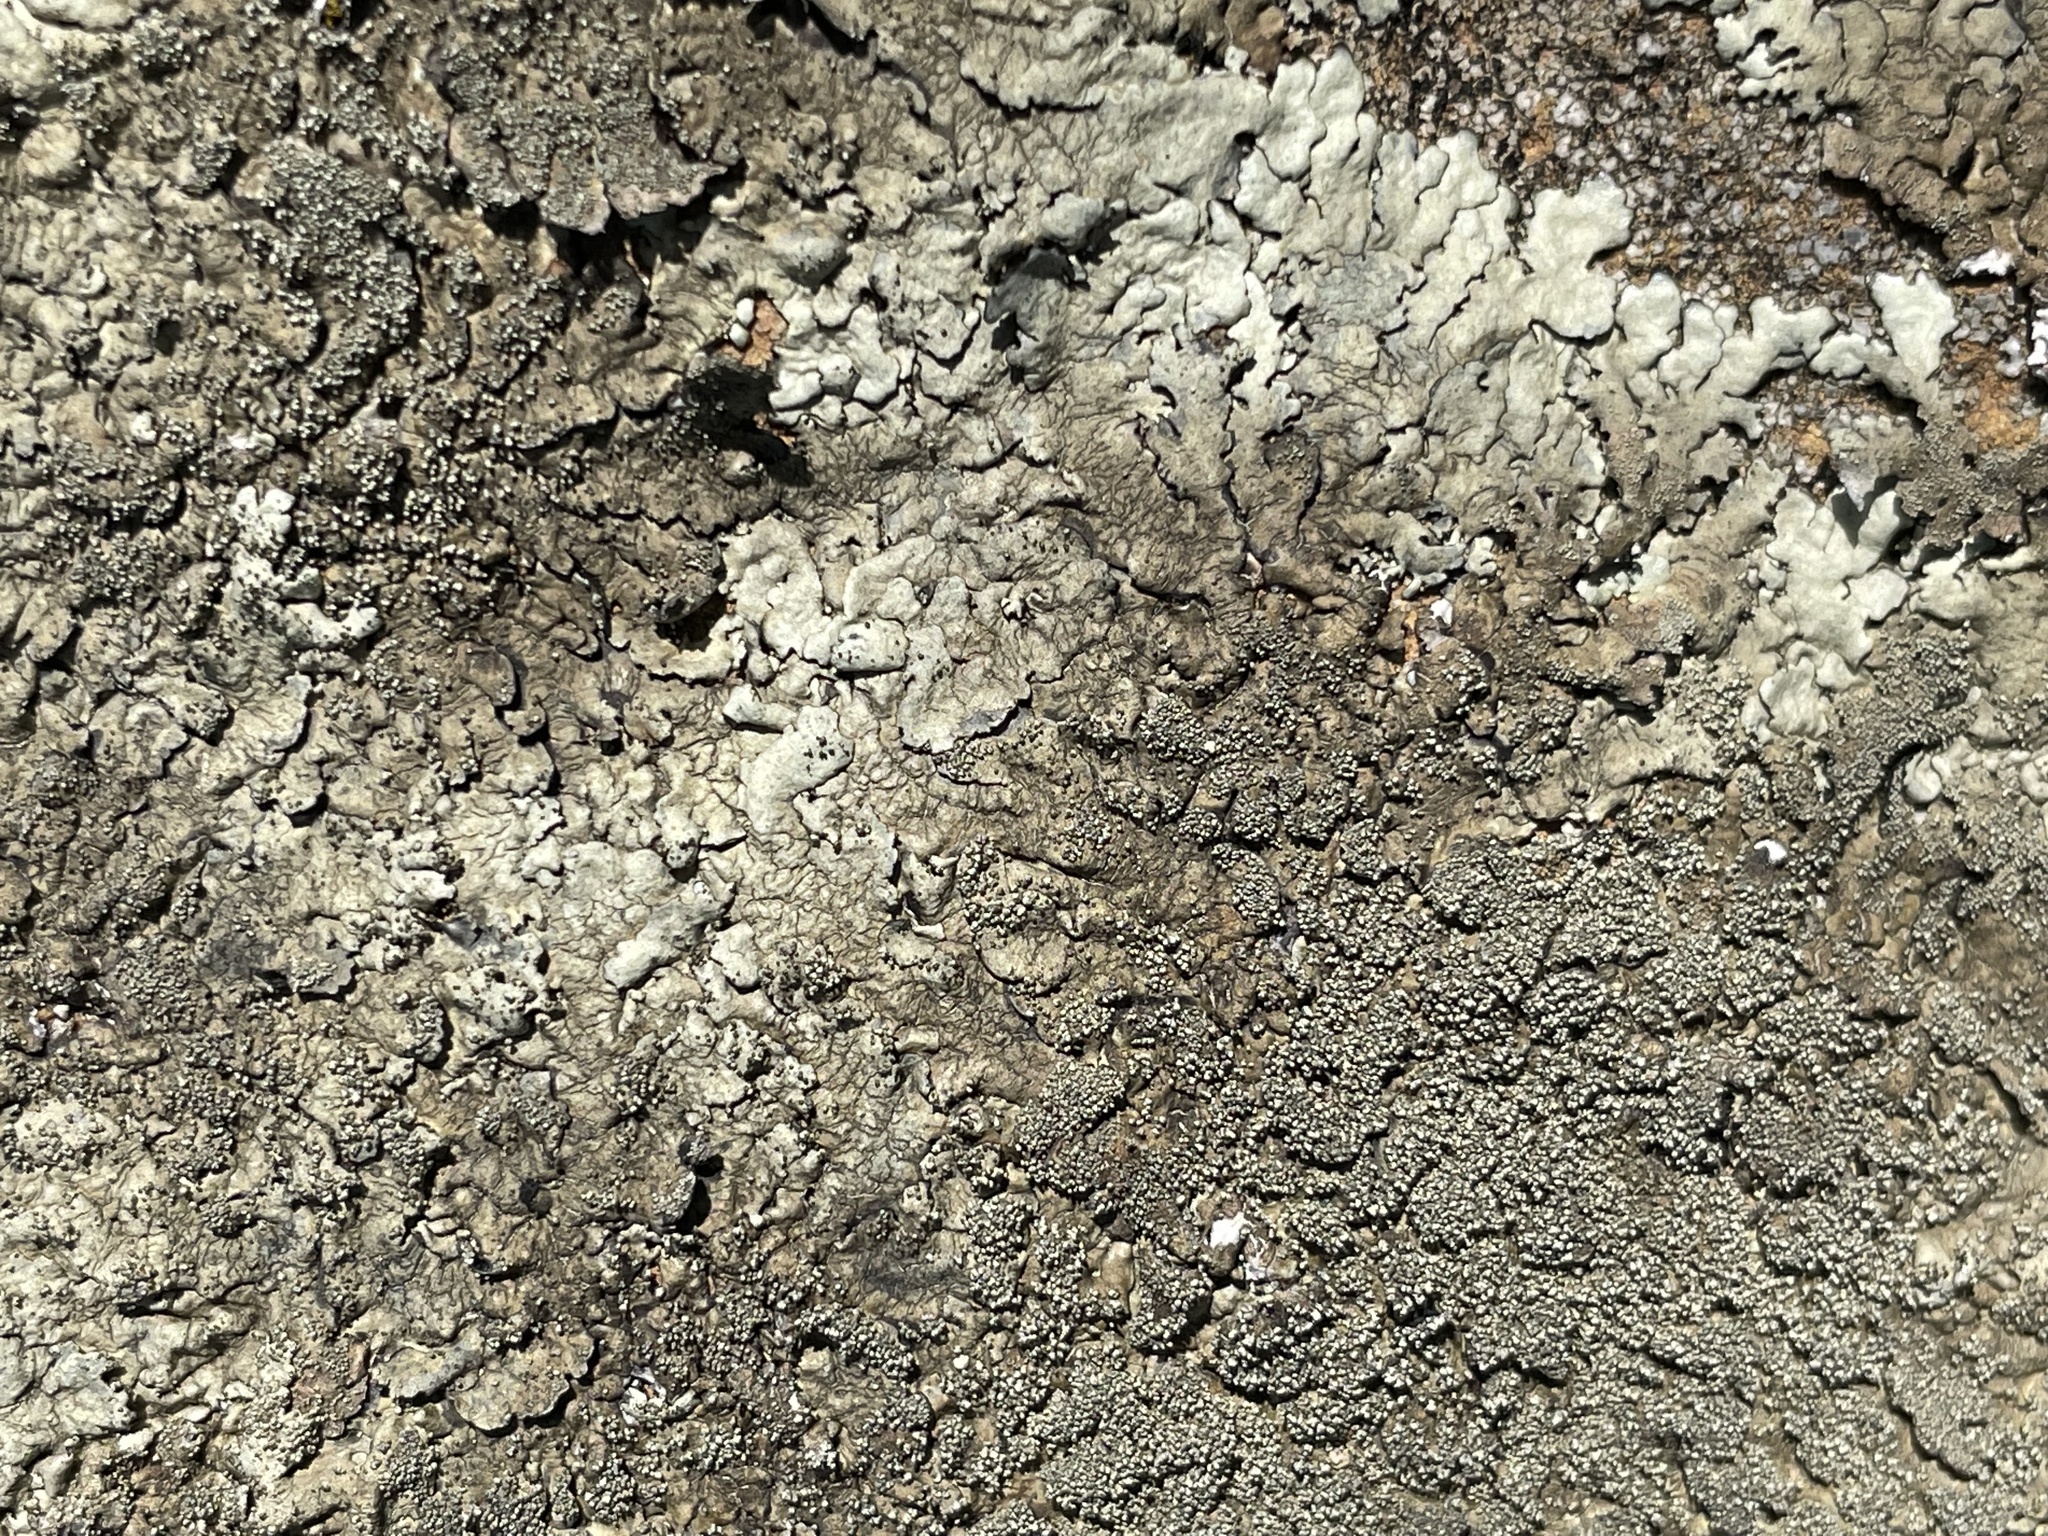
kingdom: Fungi
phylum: Ascomycota
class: Lecanoromycetes
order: Lecanorales
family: Parmeliaceae
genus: Xanthoparmelia
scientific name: Xanthoparmelia tinctina
